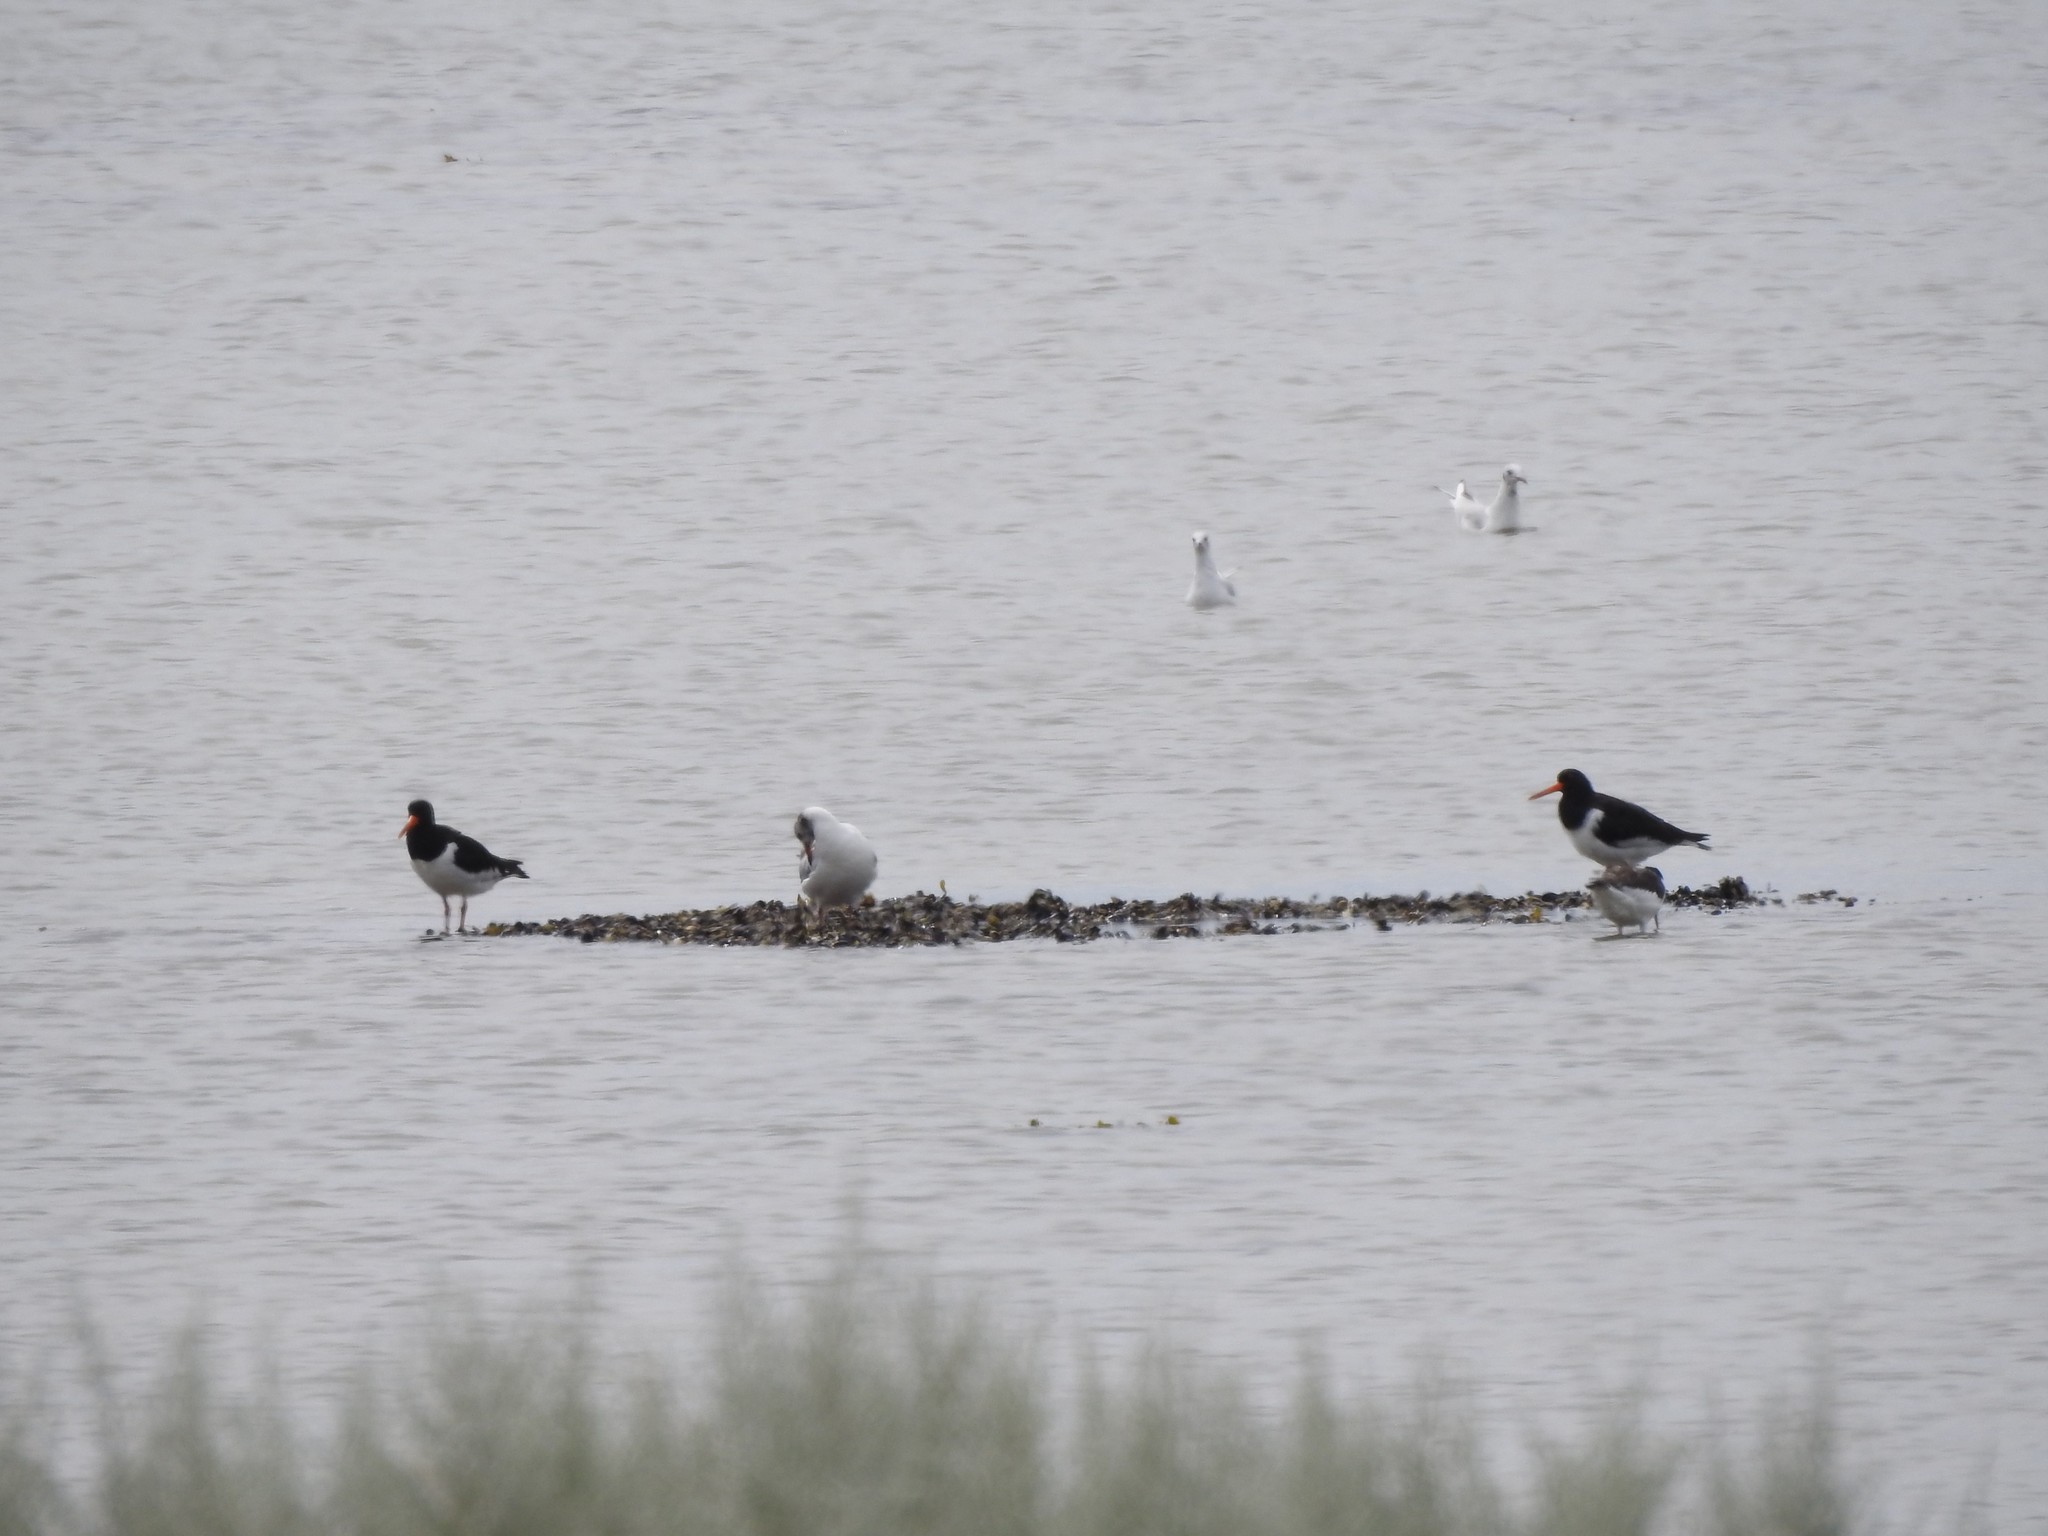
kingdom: Animalia
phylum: Chordata
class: Aves
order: Charadriiformes
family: Haematopodidae
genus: Haematopus
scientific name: Haematopus ostralegus
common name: Eurasian oystercatcher
